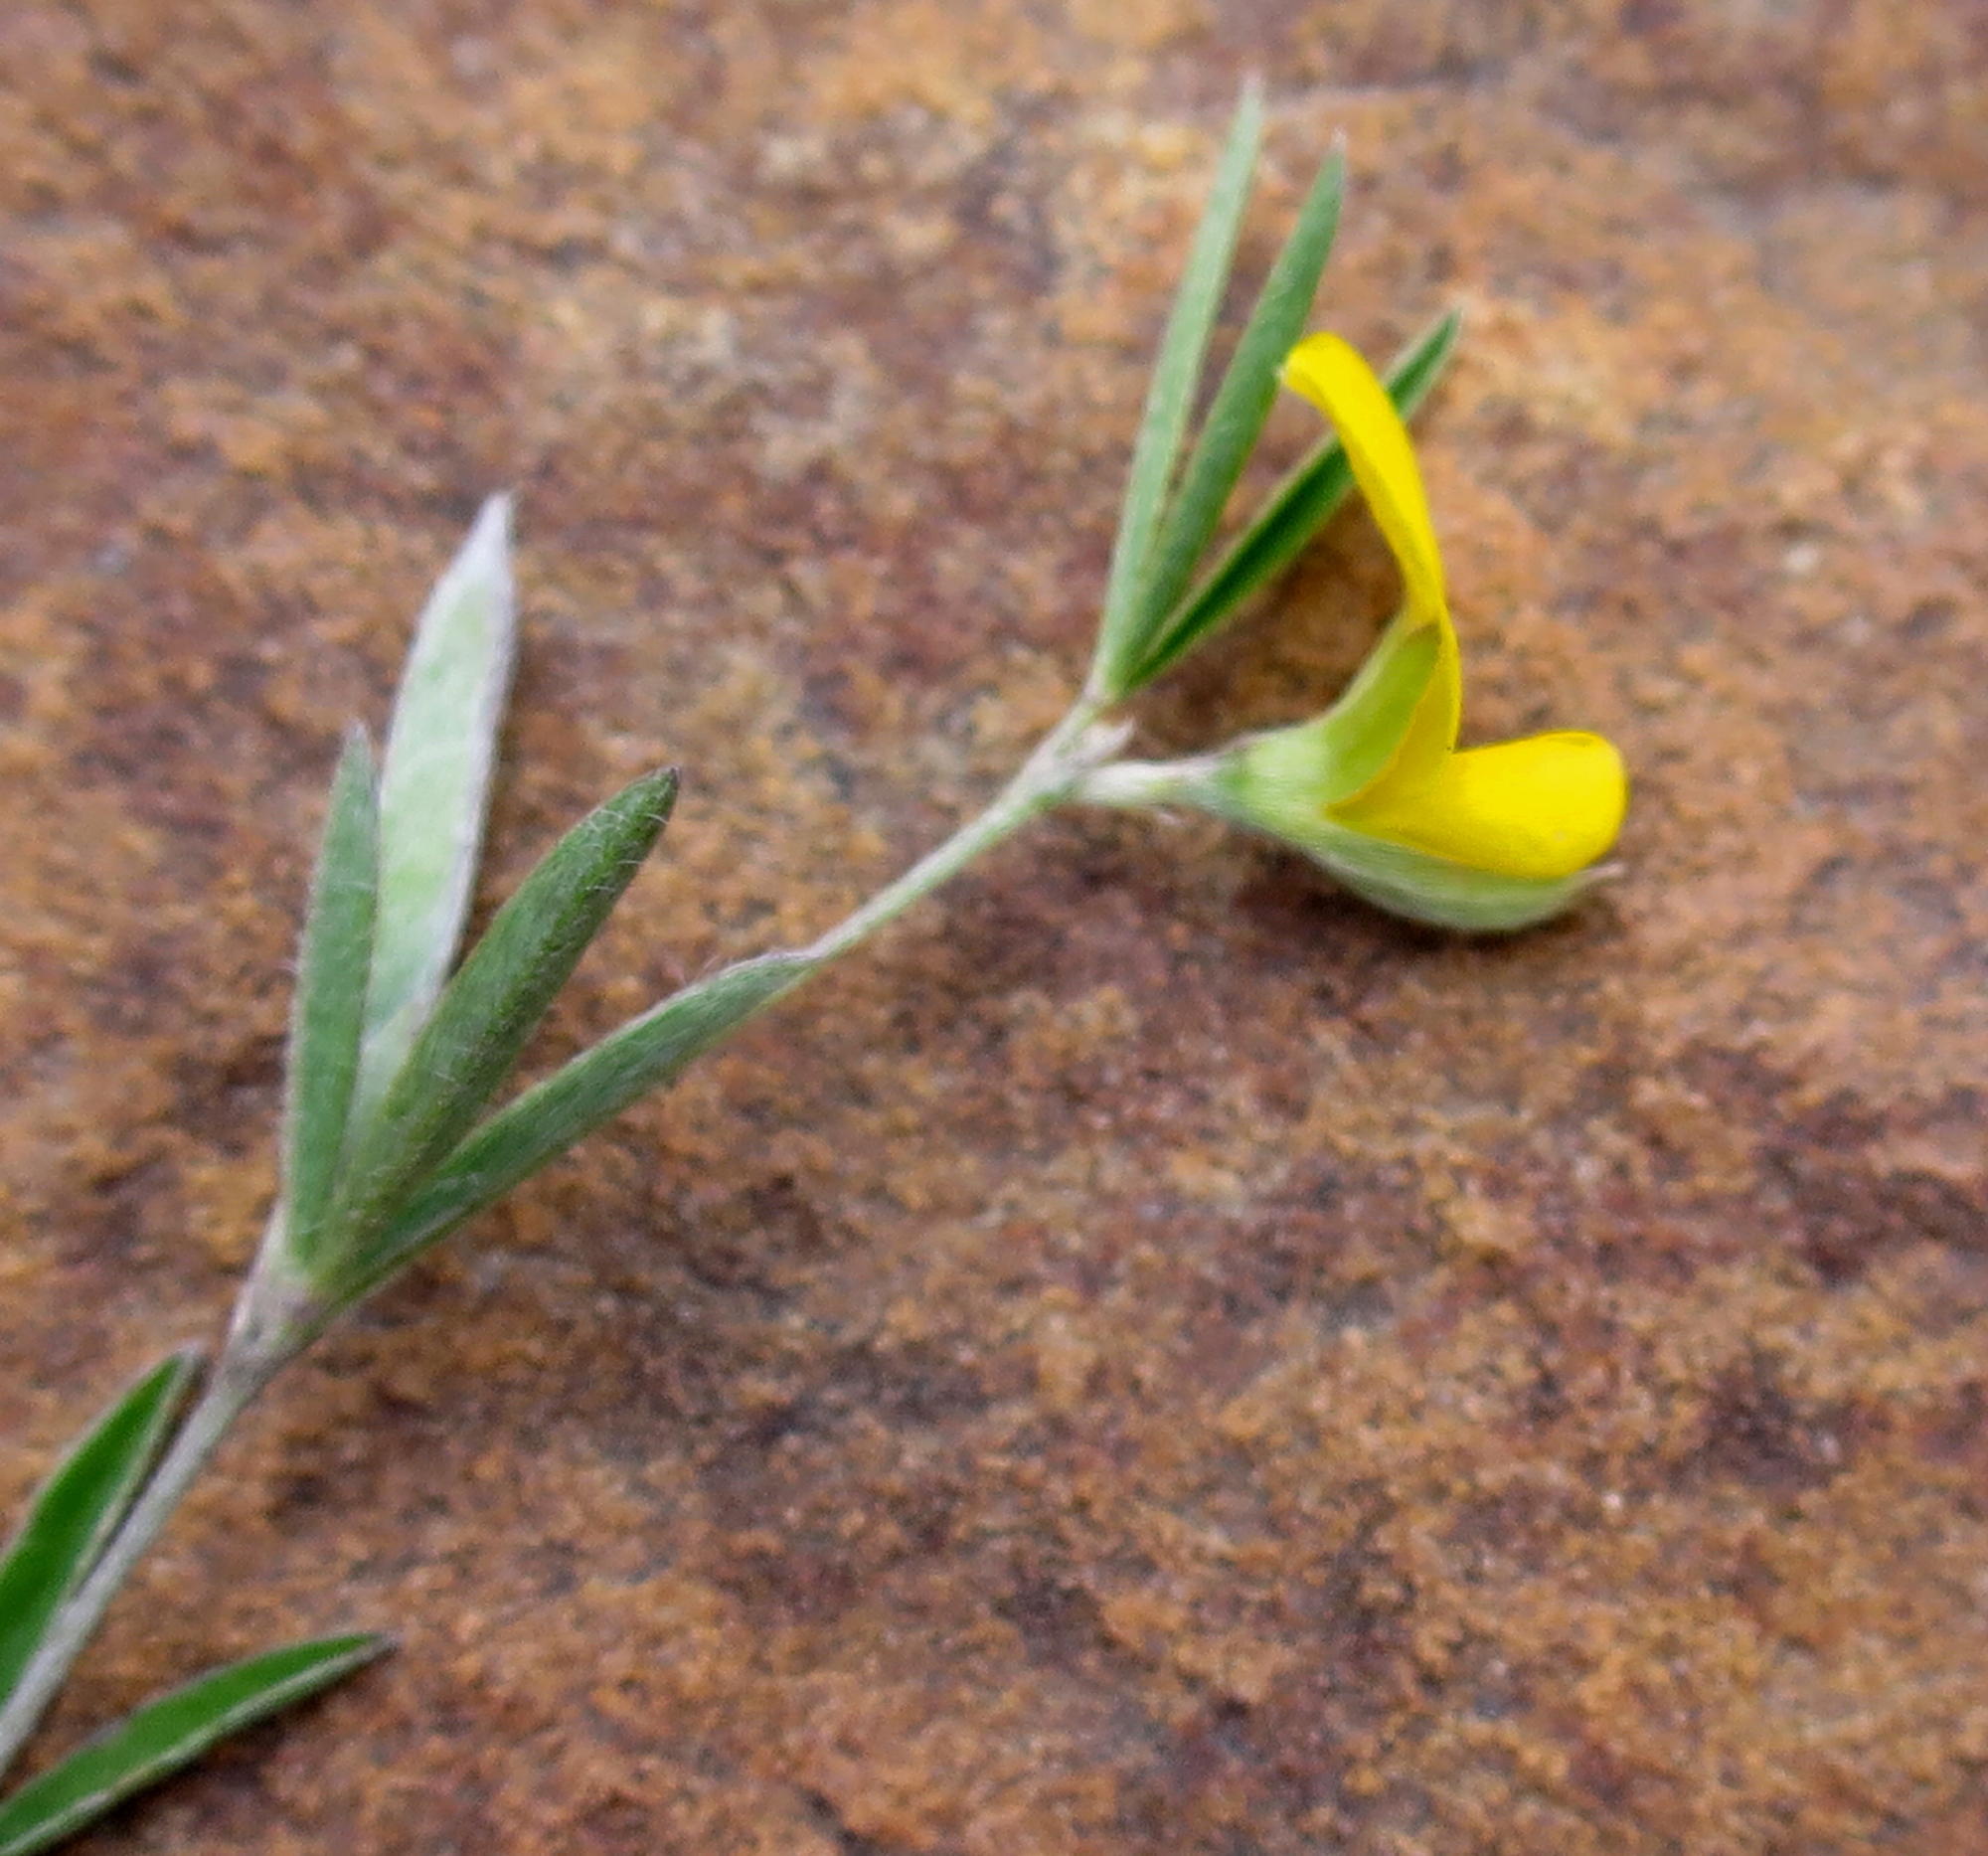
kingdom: Plantae
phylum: Tracheophyta
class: Magnoliopsida
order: Fabales
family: Fabaceae
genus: Argyrolobium
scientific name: Argyrolobium harveyanum
